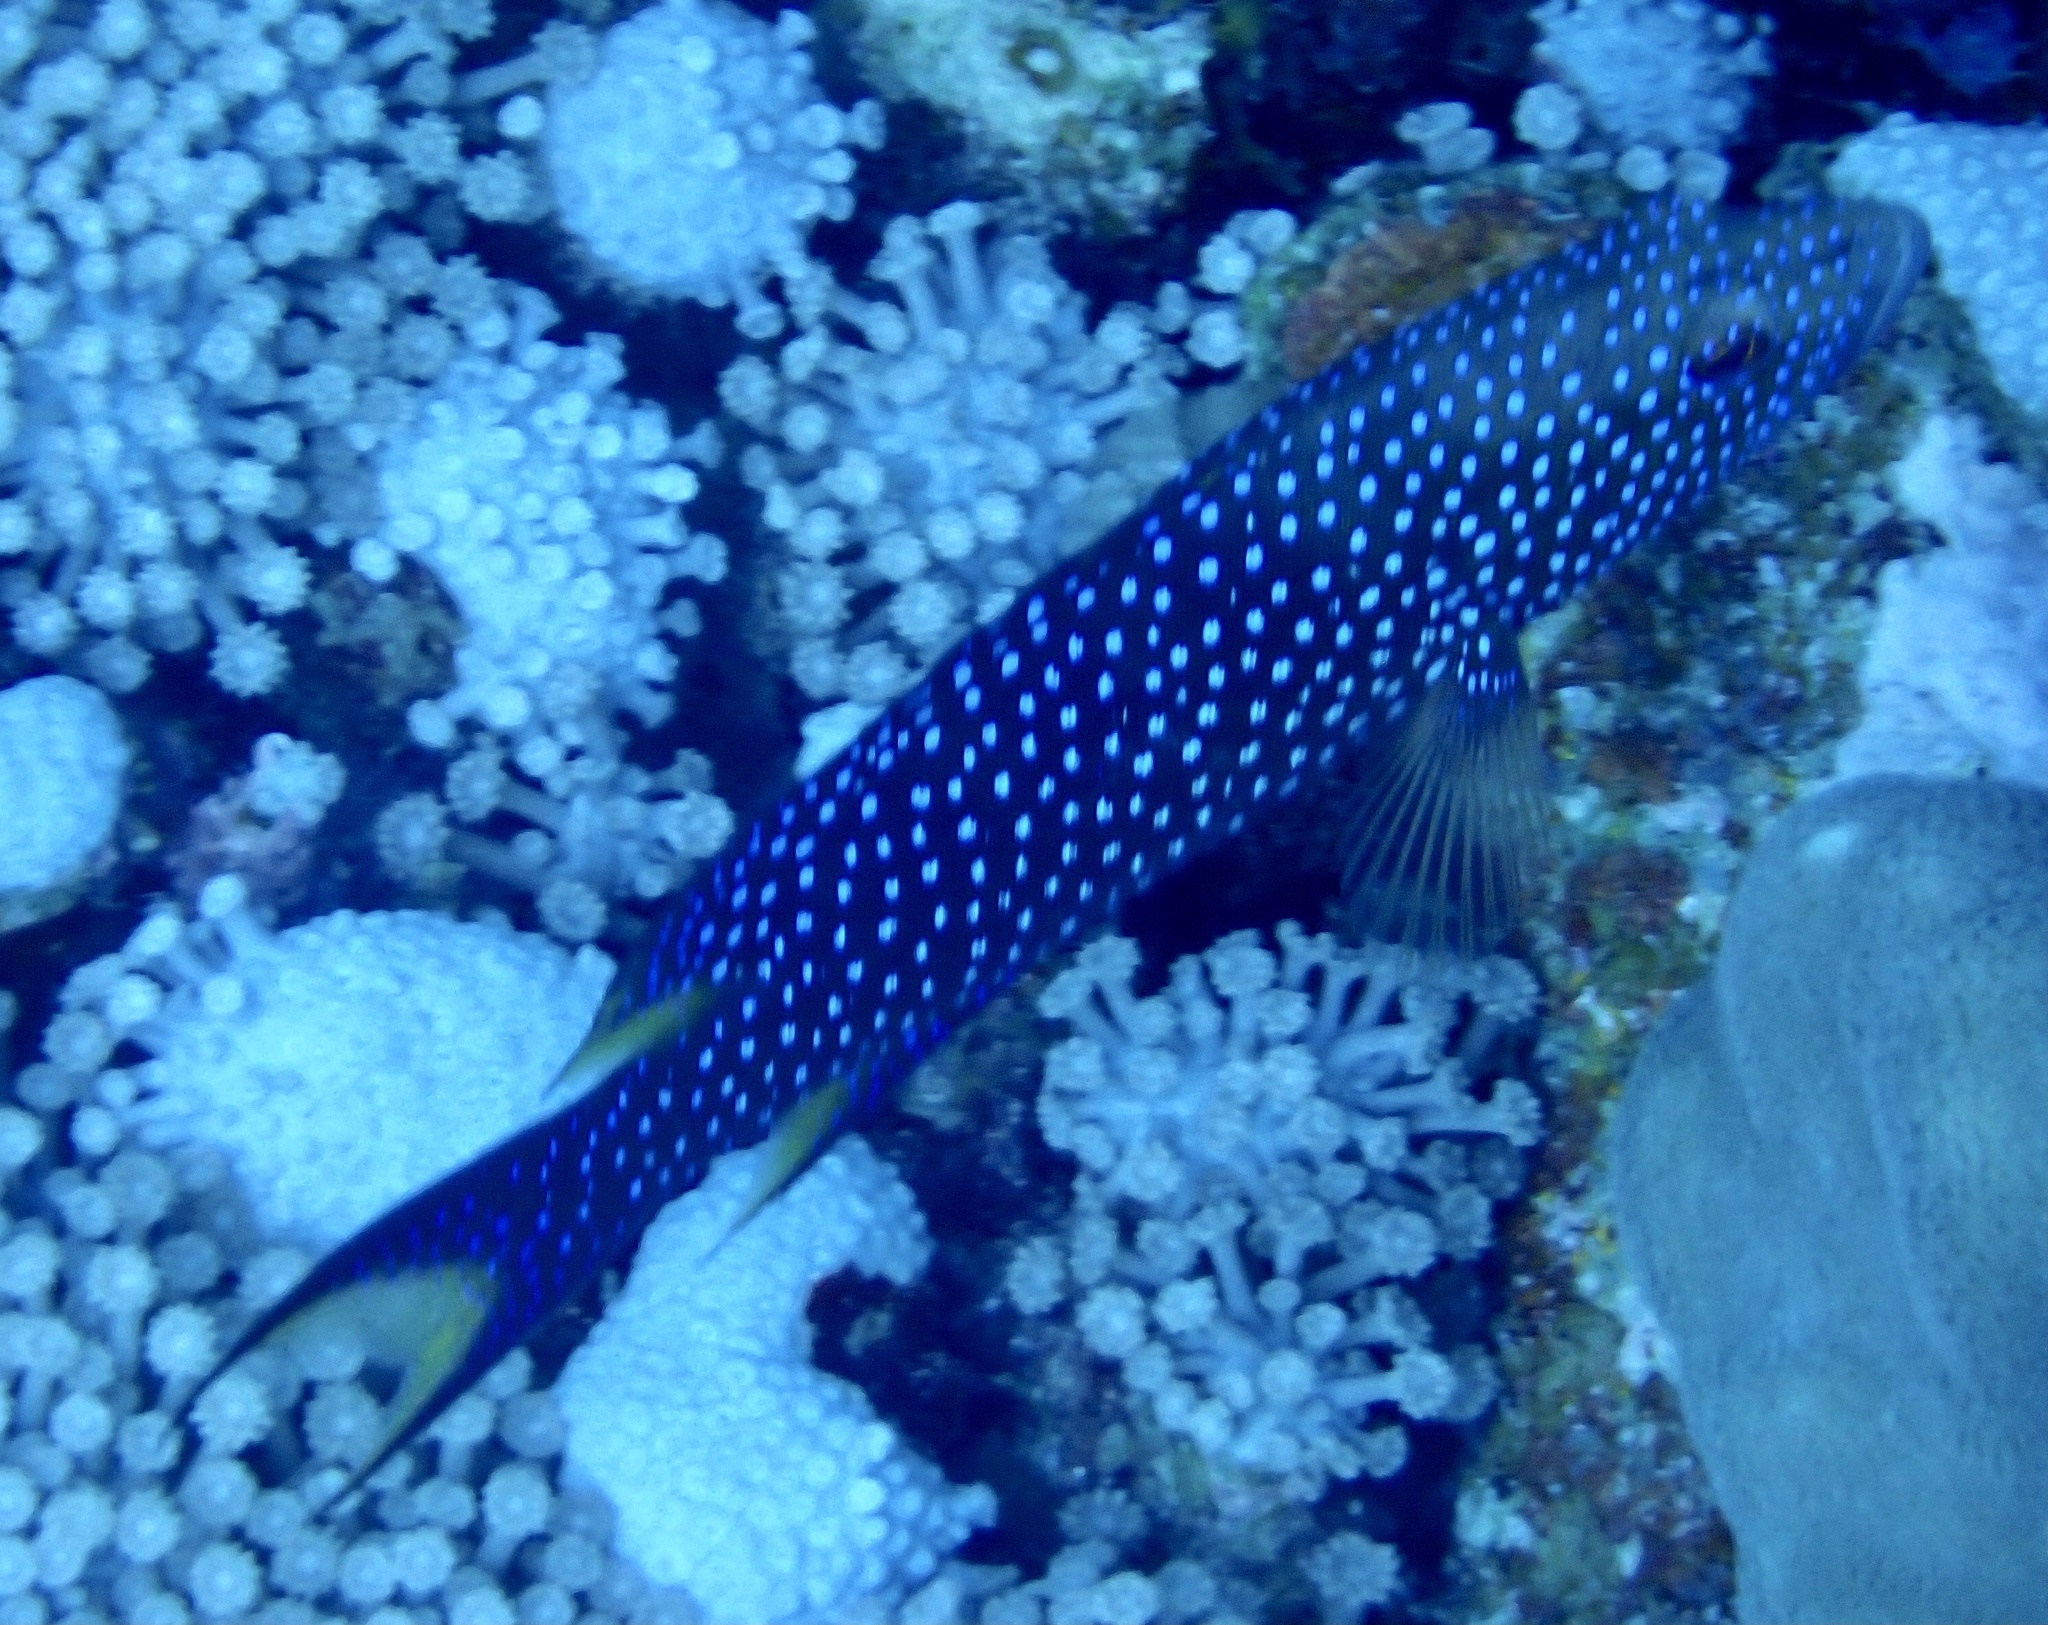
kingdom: Animalia
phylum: Chordata
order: Perciformes
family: Serranidae
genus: Variola
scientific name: Variola louti
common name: Yellow-edged lyretail
